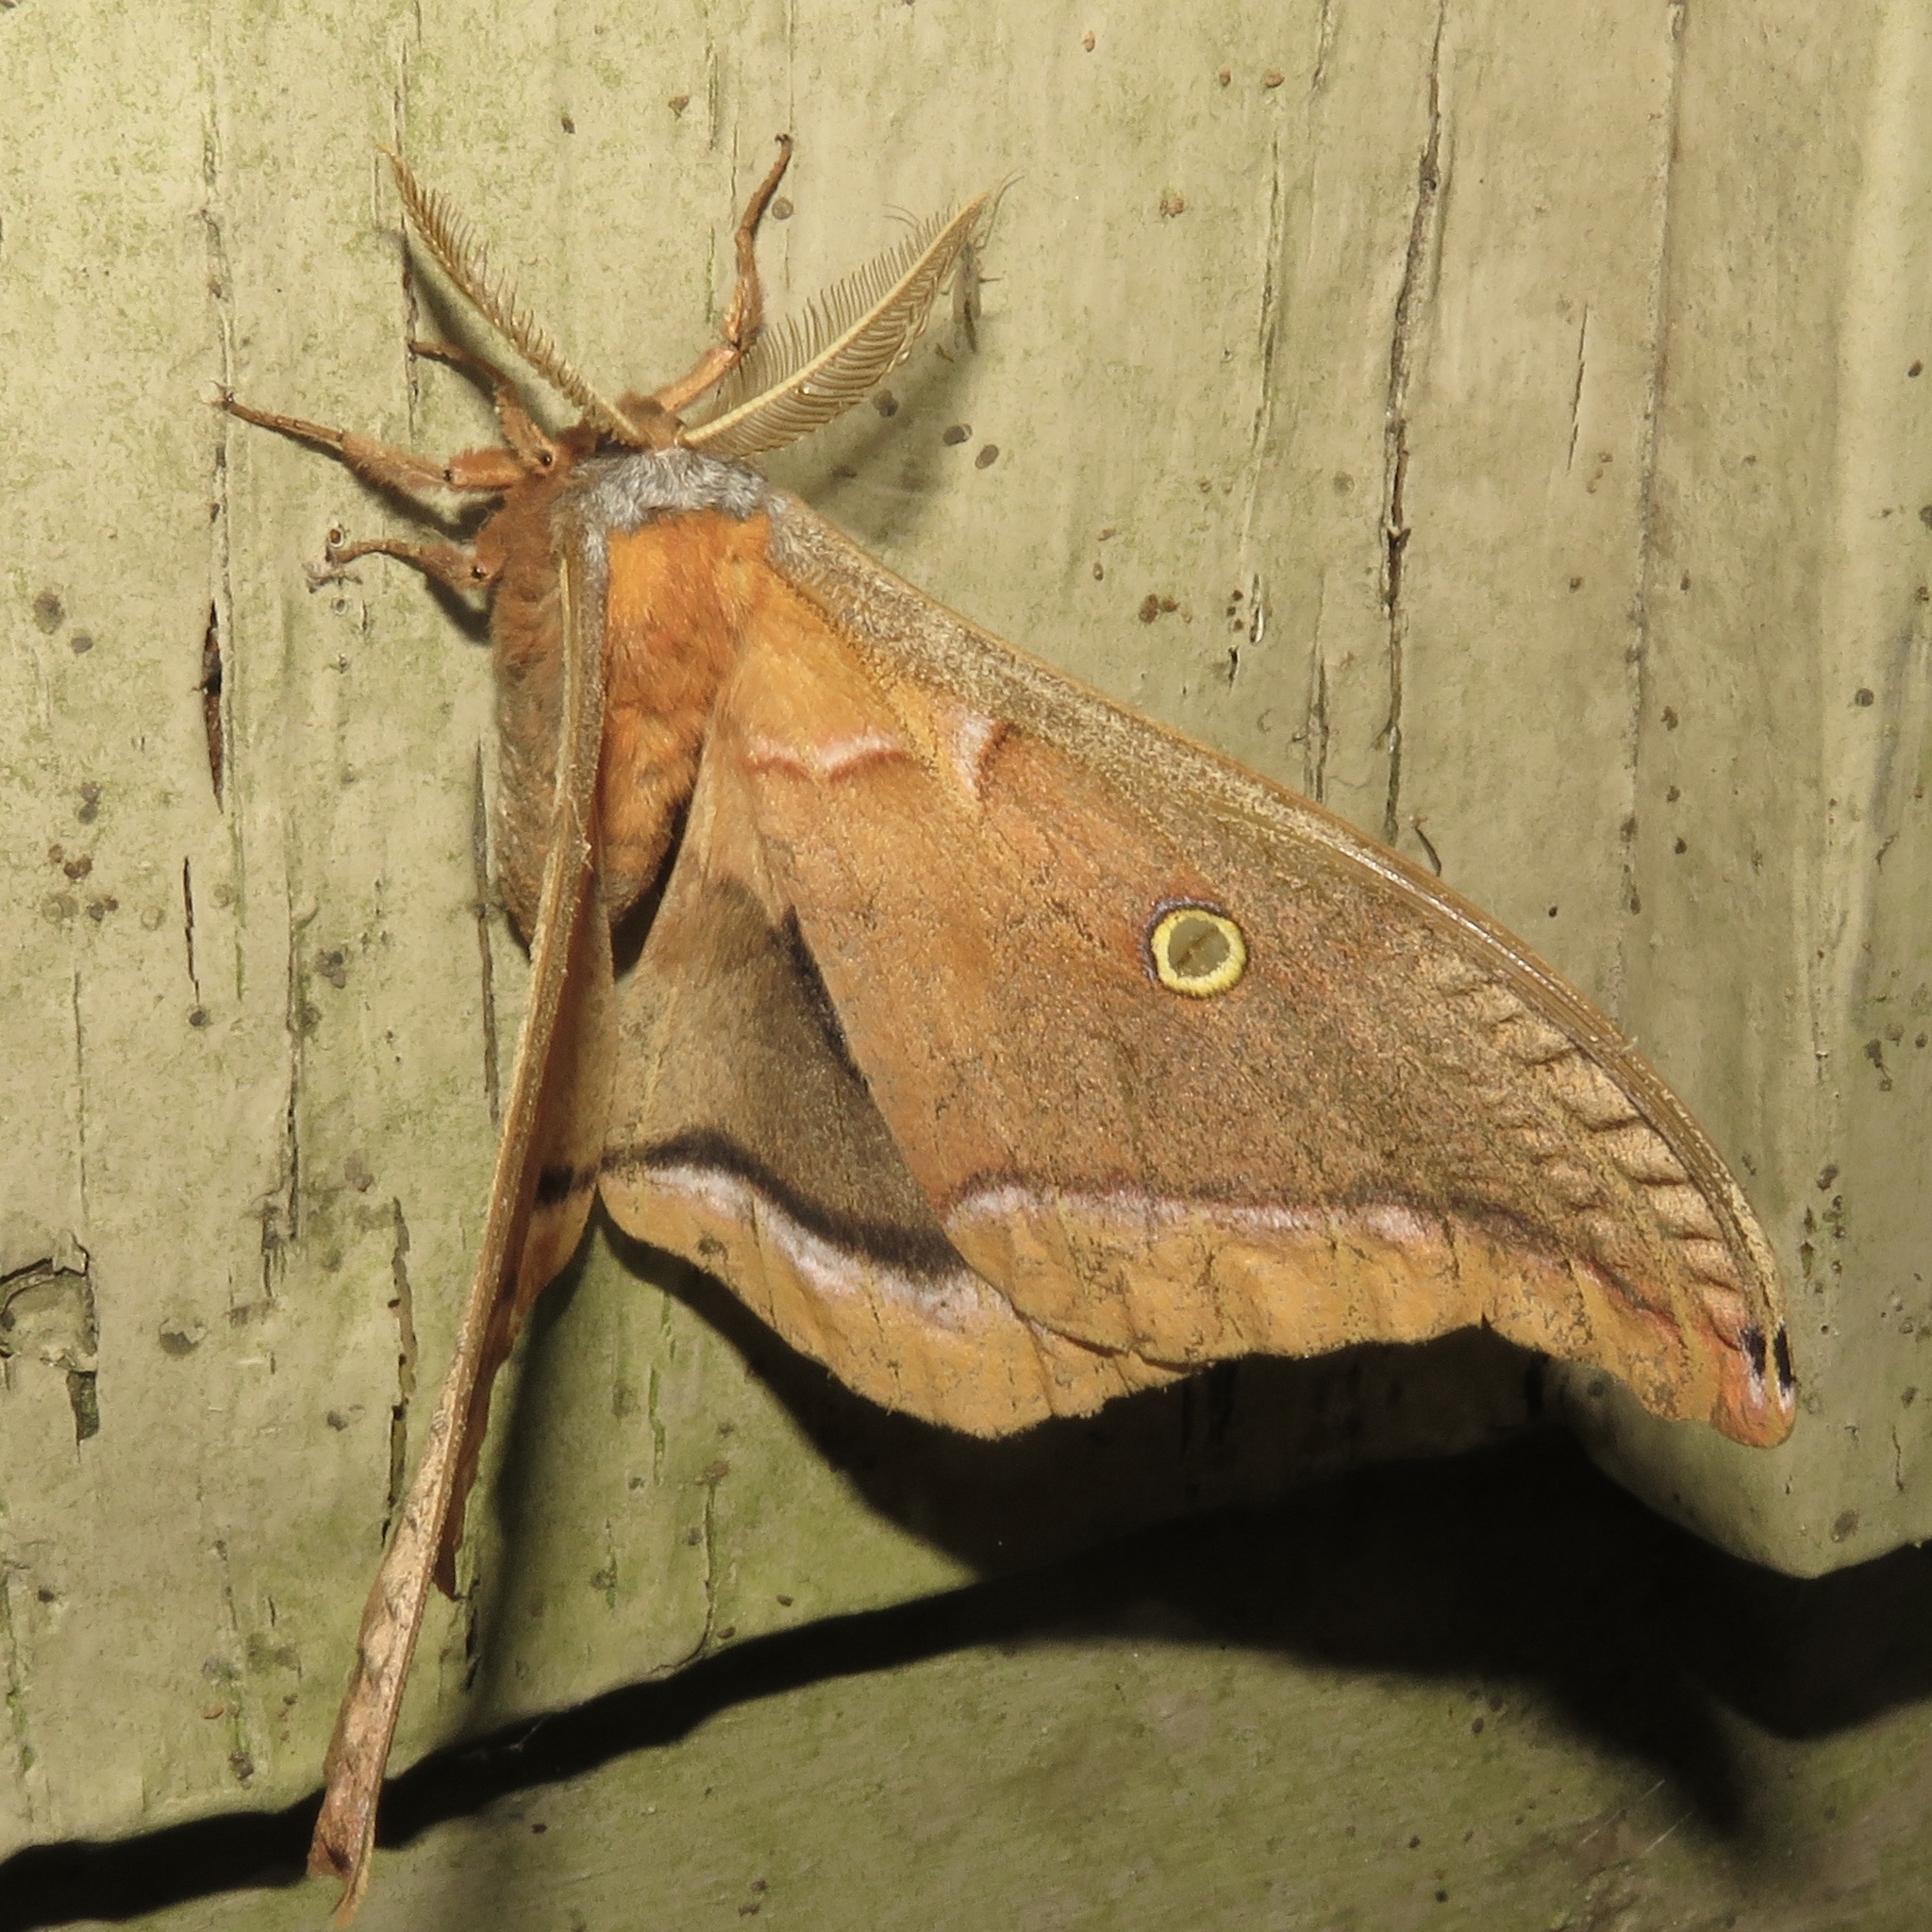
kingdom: Animalia
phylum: Arthropoda
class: Insecta
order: Lepidoptera
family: Saturniidae
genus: Antheraea
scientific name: Antheraea polyphemus
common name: Polyphemus moth
